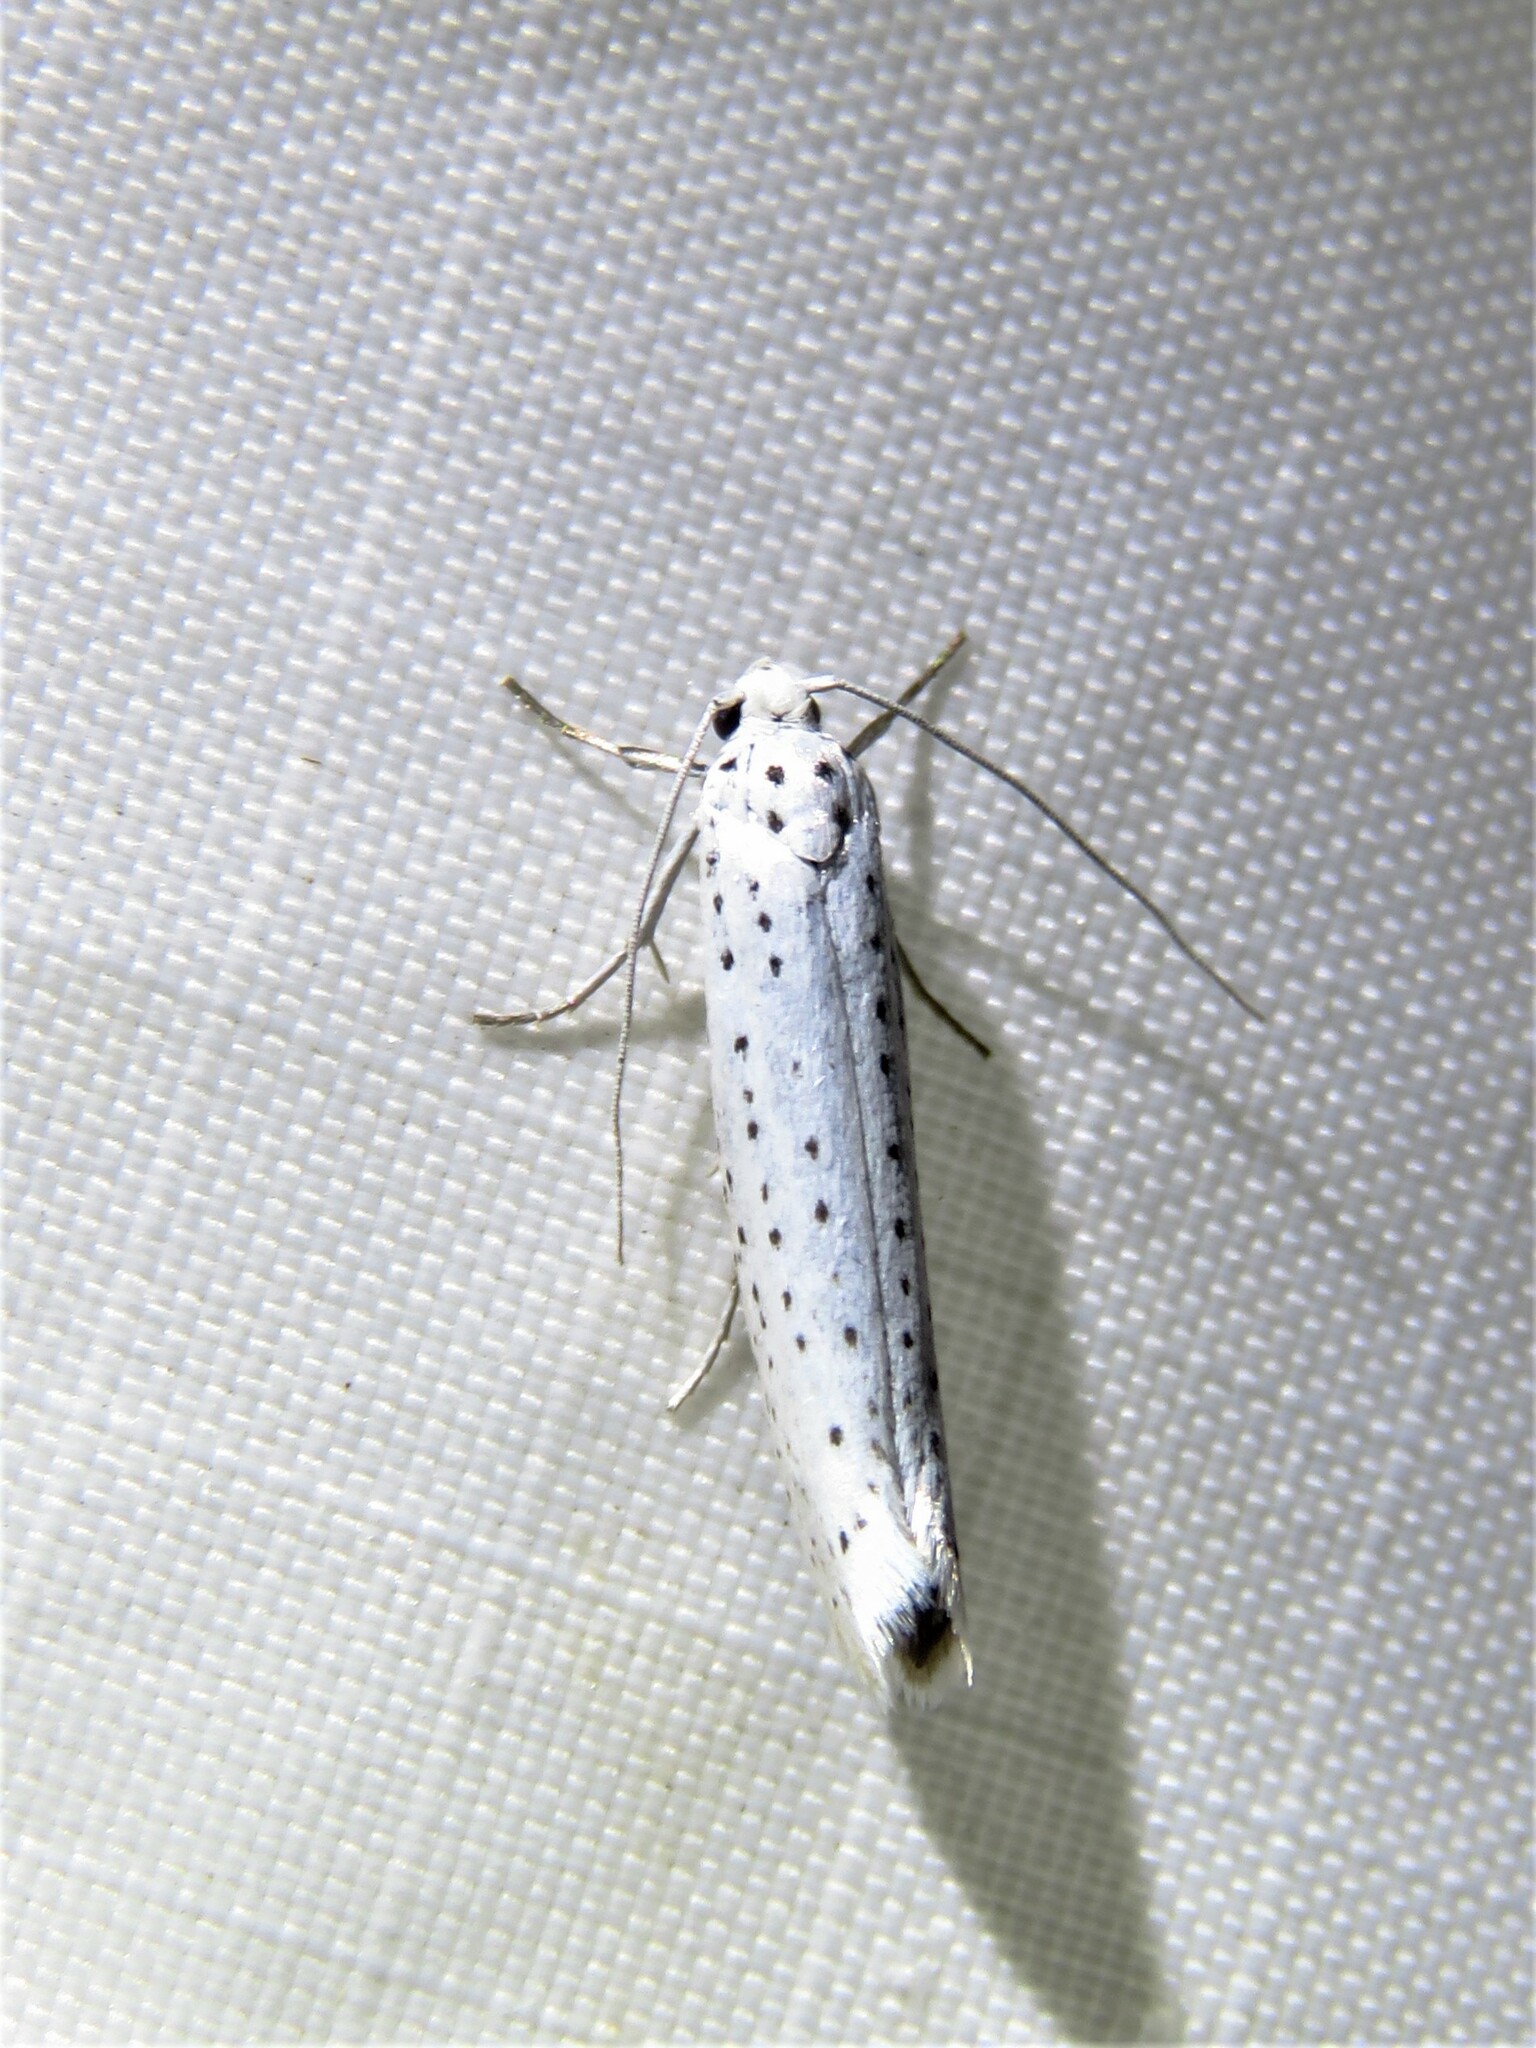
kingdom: Animalia
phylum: Arthropoda
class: Insecta
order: Lepidoptera
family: Yponomeutidae
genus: Yponomeuta
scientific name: Yponomeuta evonymella
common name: Bird-cherry ermine
